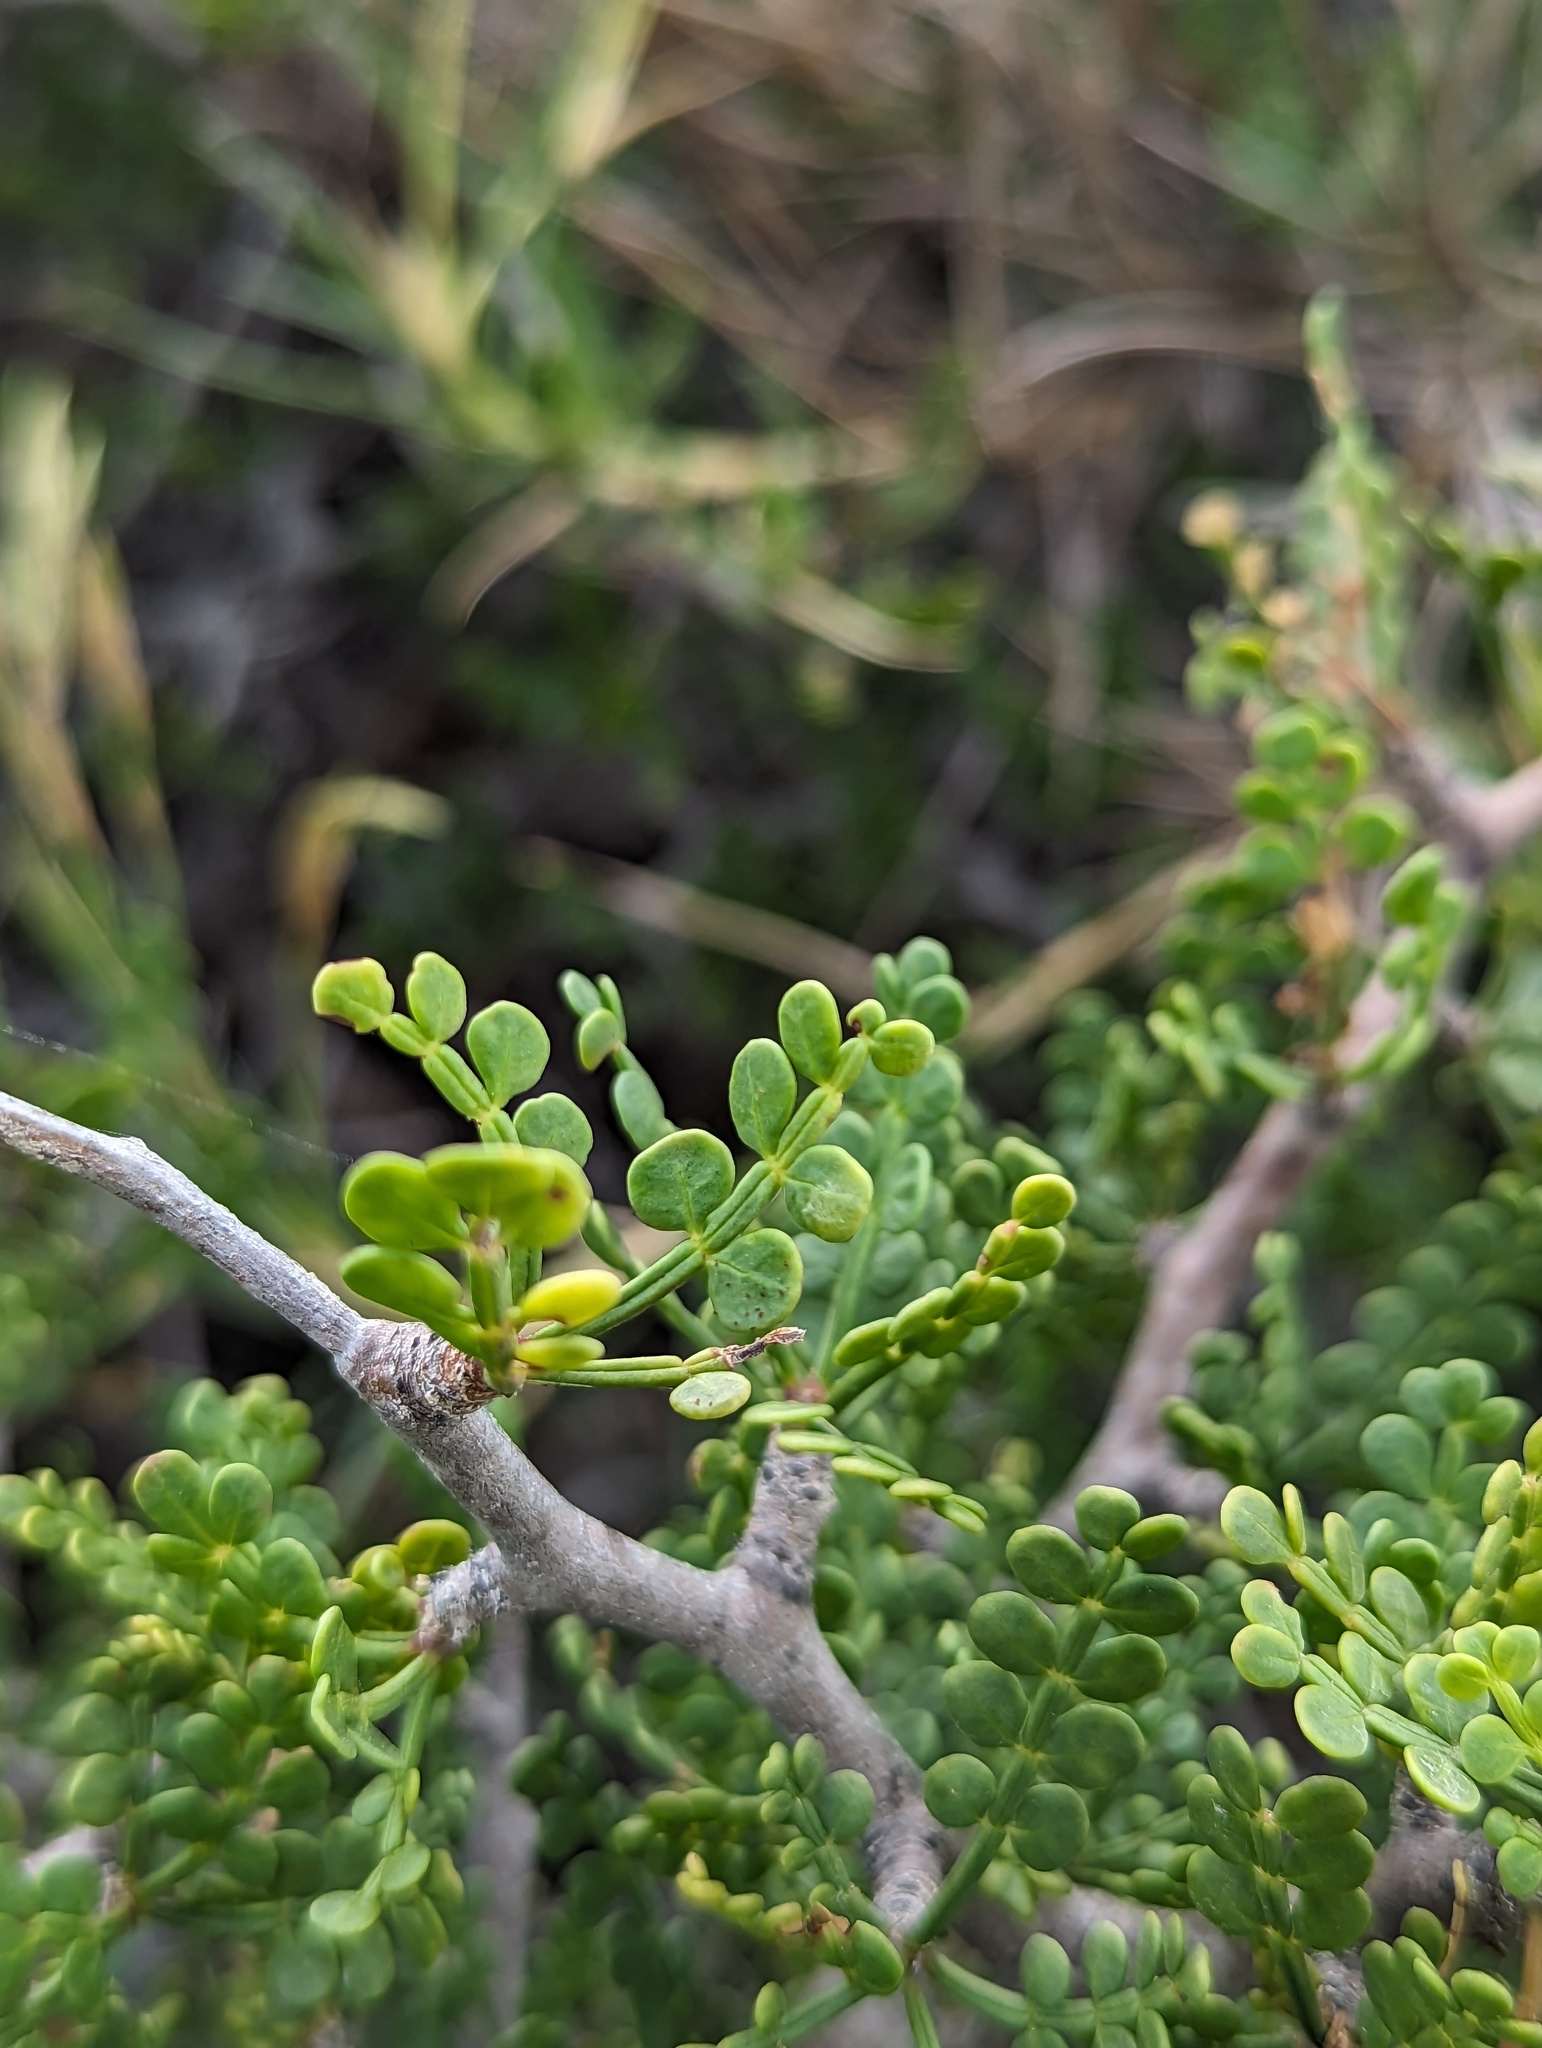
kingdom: Plantae
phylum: Tracheophyta
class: Magnoliopsida
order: Sapindales
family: Burseraceae
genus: Bursera
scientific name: Bursera exequielii
